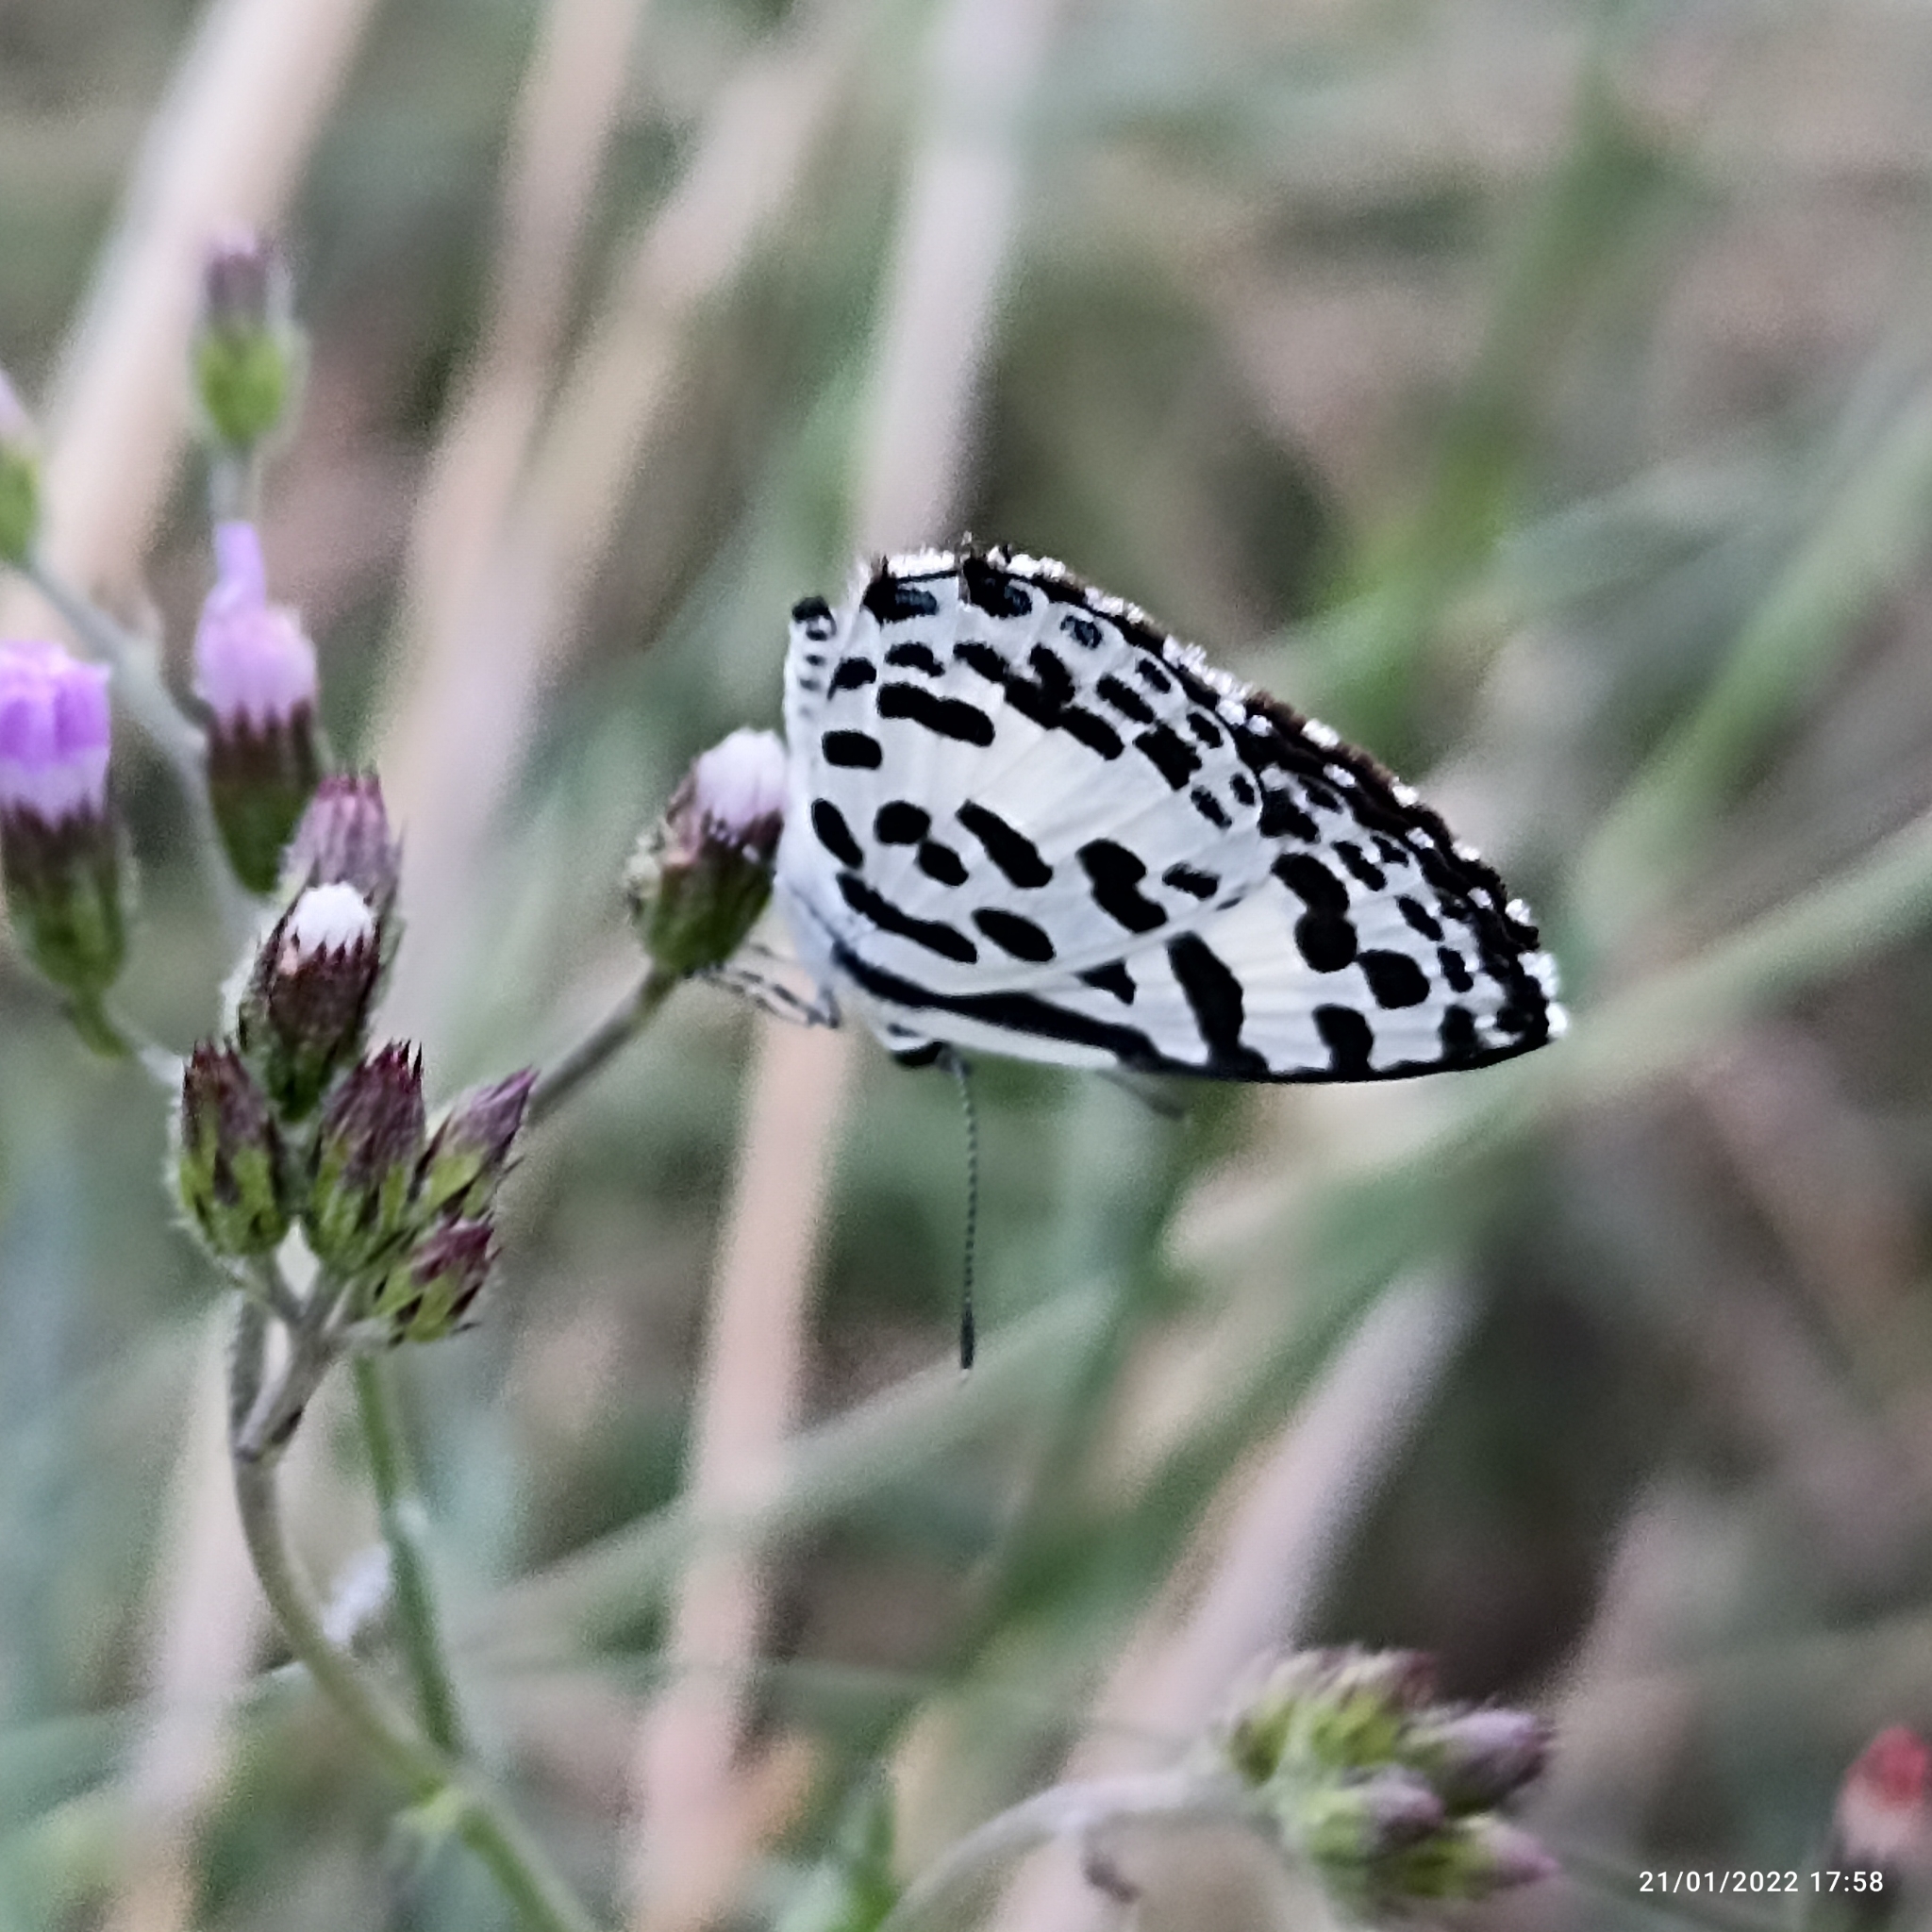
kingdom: Animalia
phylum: Arthropoda
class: Insecta
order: Lepidoptera
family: Lycaenidae
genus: Castalius
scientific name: Castalius rosimon
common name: Common pierrot
